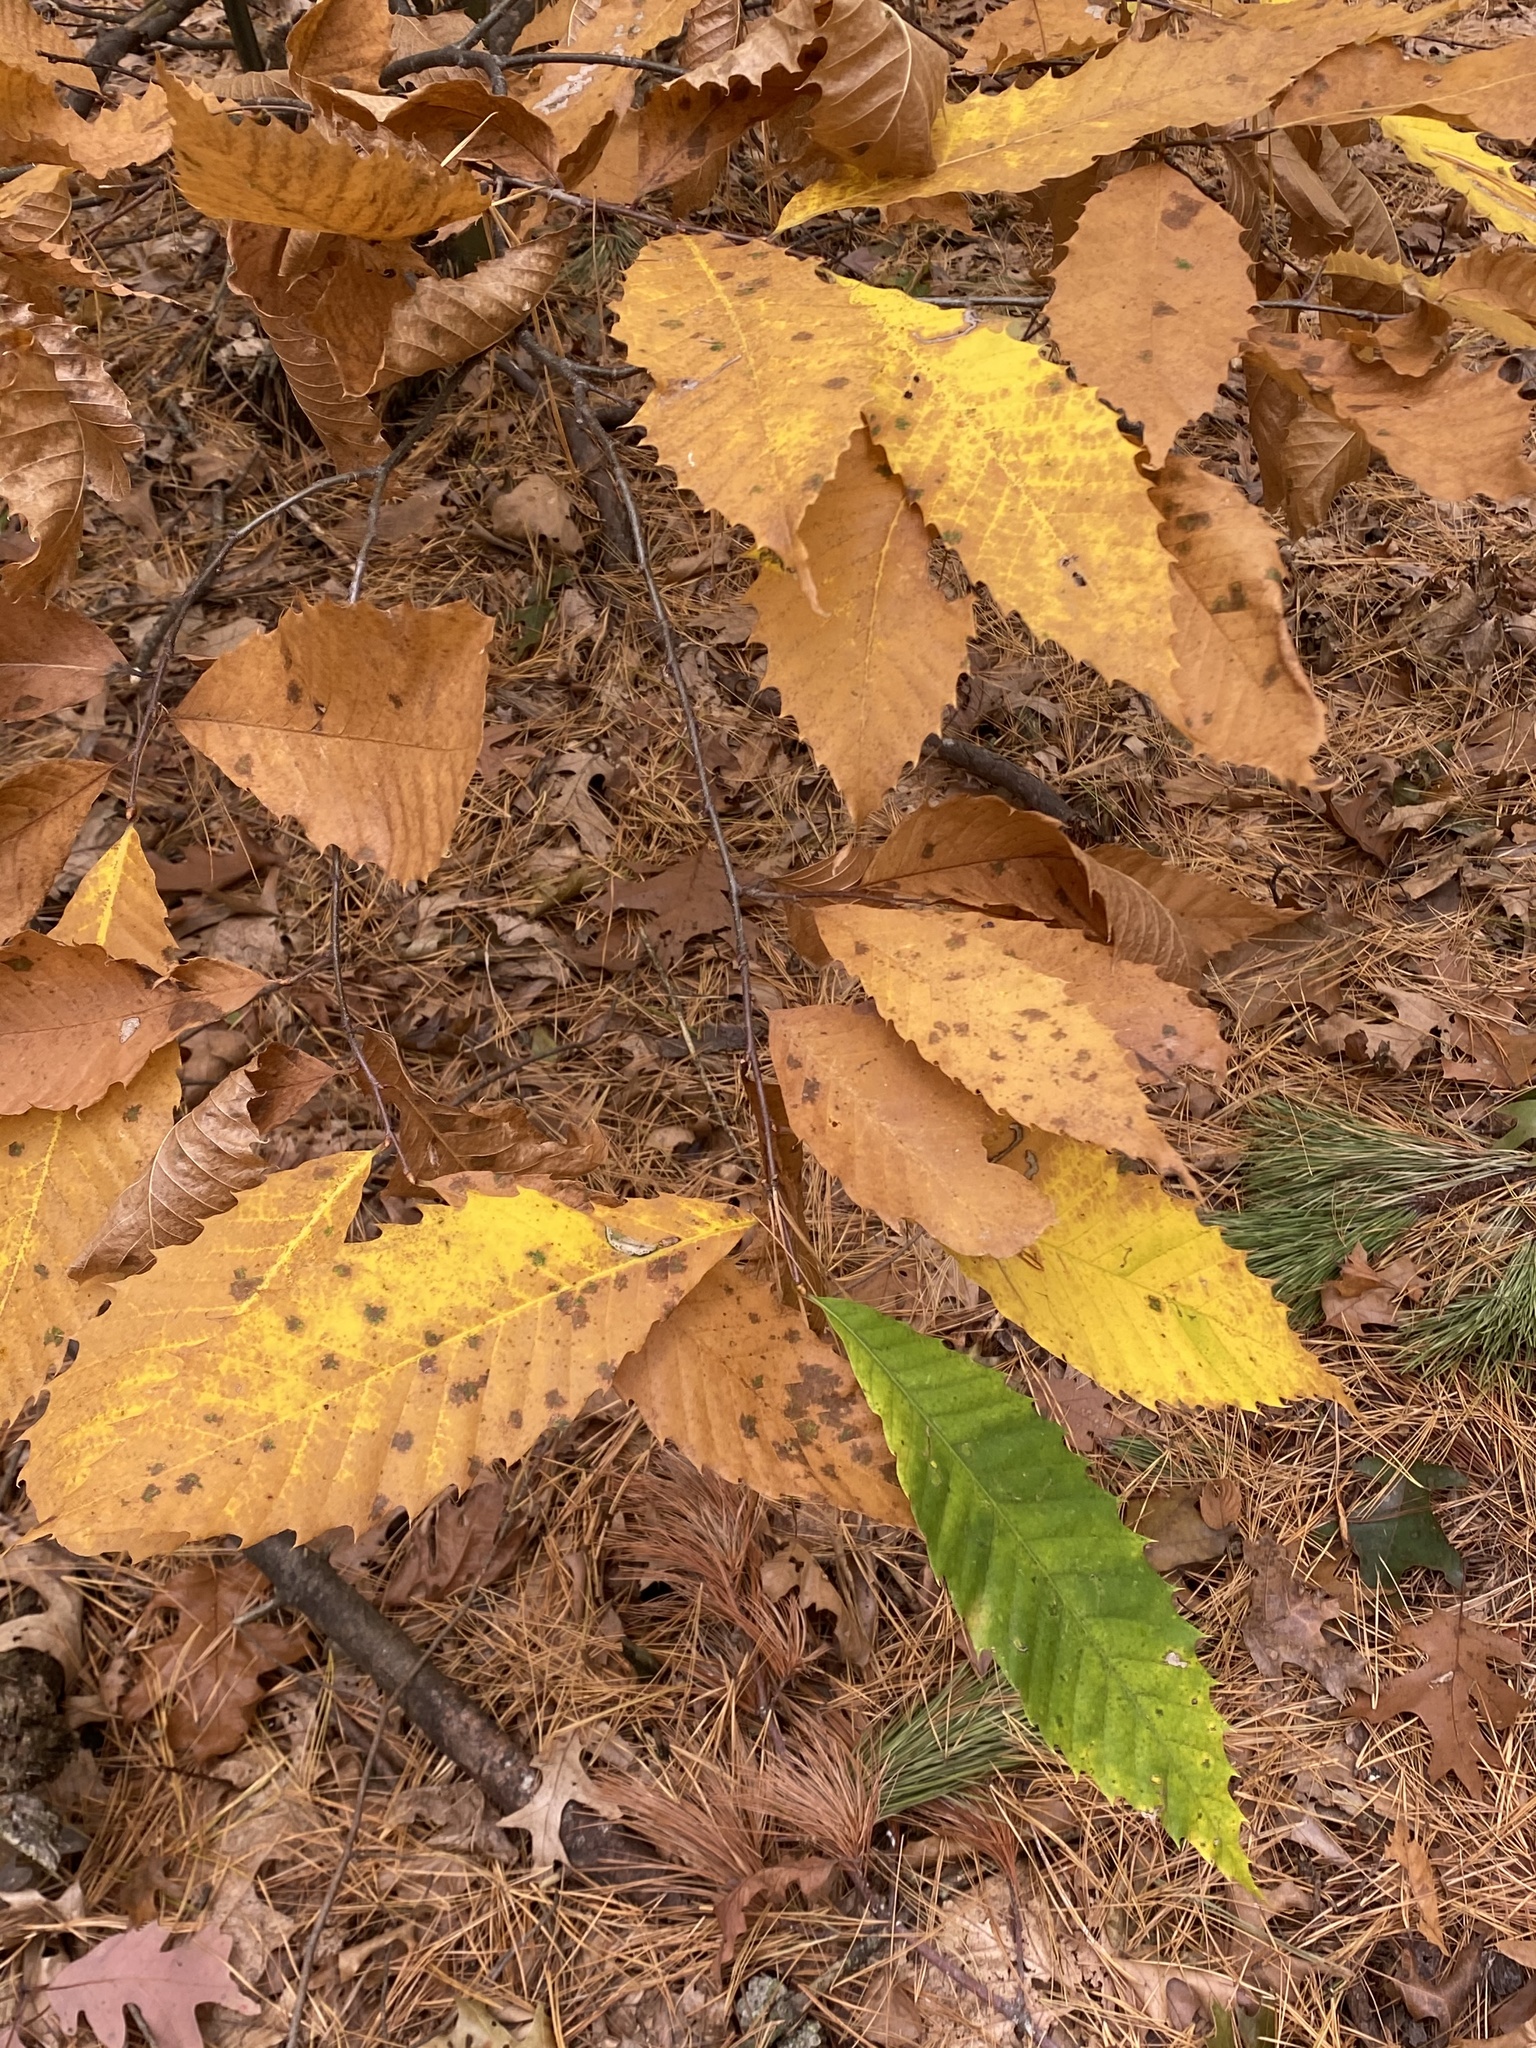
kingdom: Plantae
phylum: Tracheophyta
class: Magnoliopsida
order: Fagales
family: Fagaceae
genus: Castanea
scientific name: Castanea dentata
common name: American chestnut
